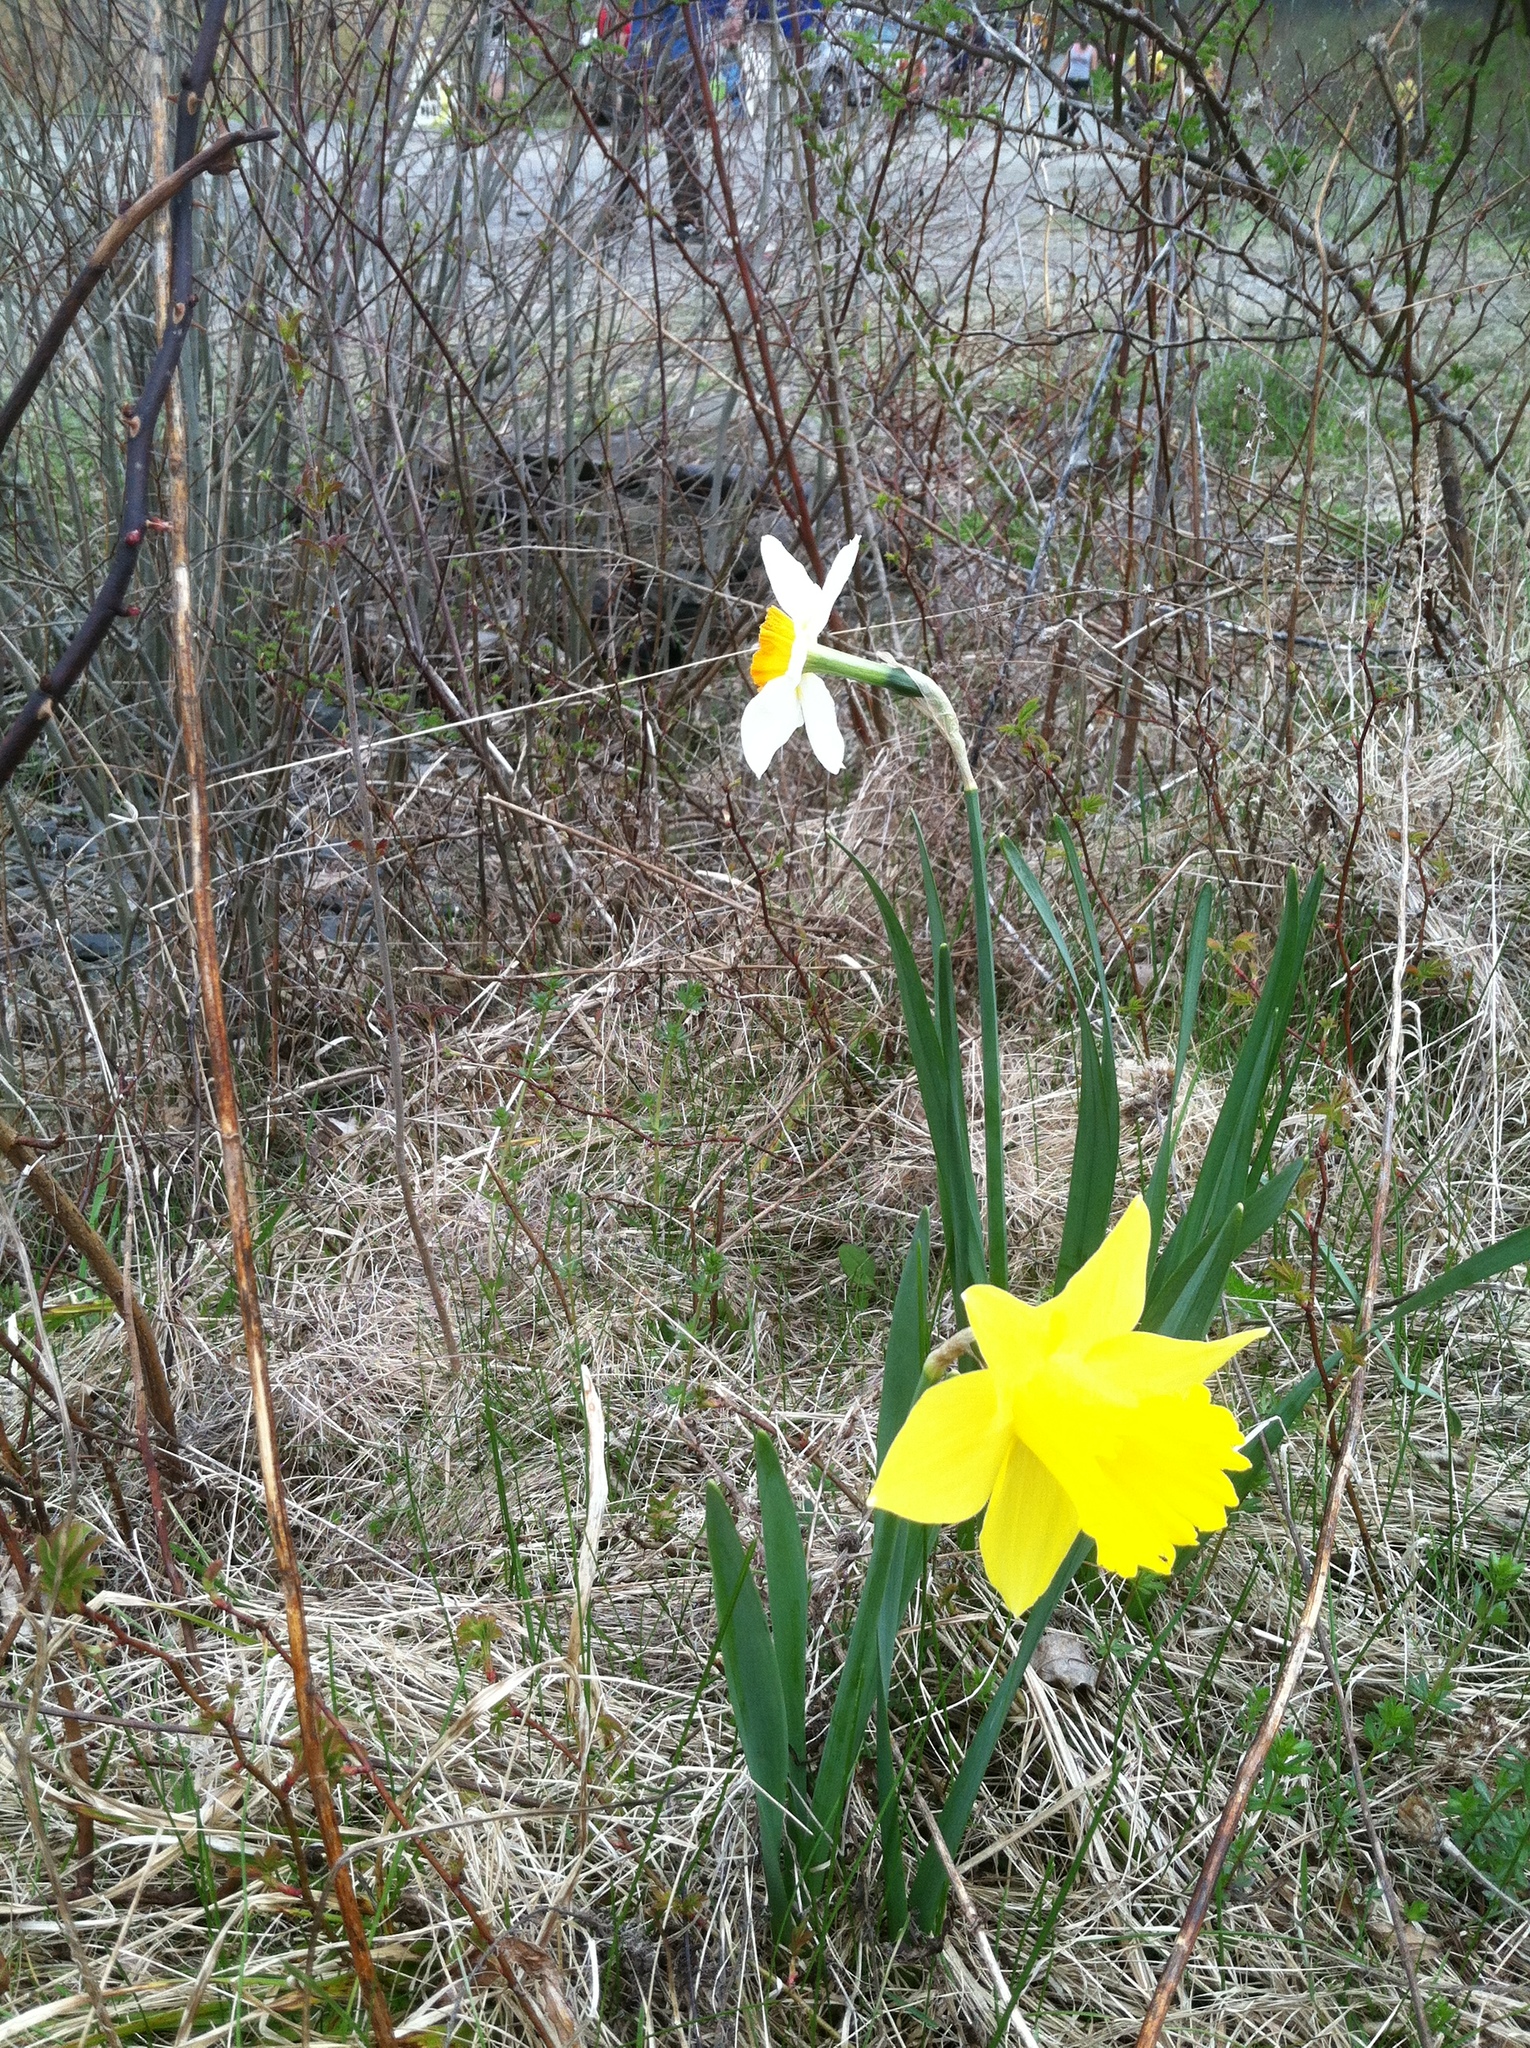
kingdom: Plantae
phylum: Tracheophyta
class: Liliopsida
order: Asparagales
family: Amaryllidaceae
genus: Narcissus
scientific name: Narcissus
